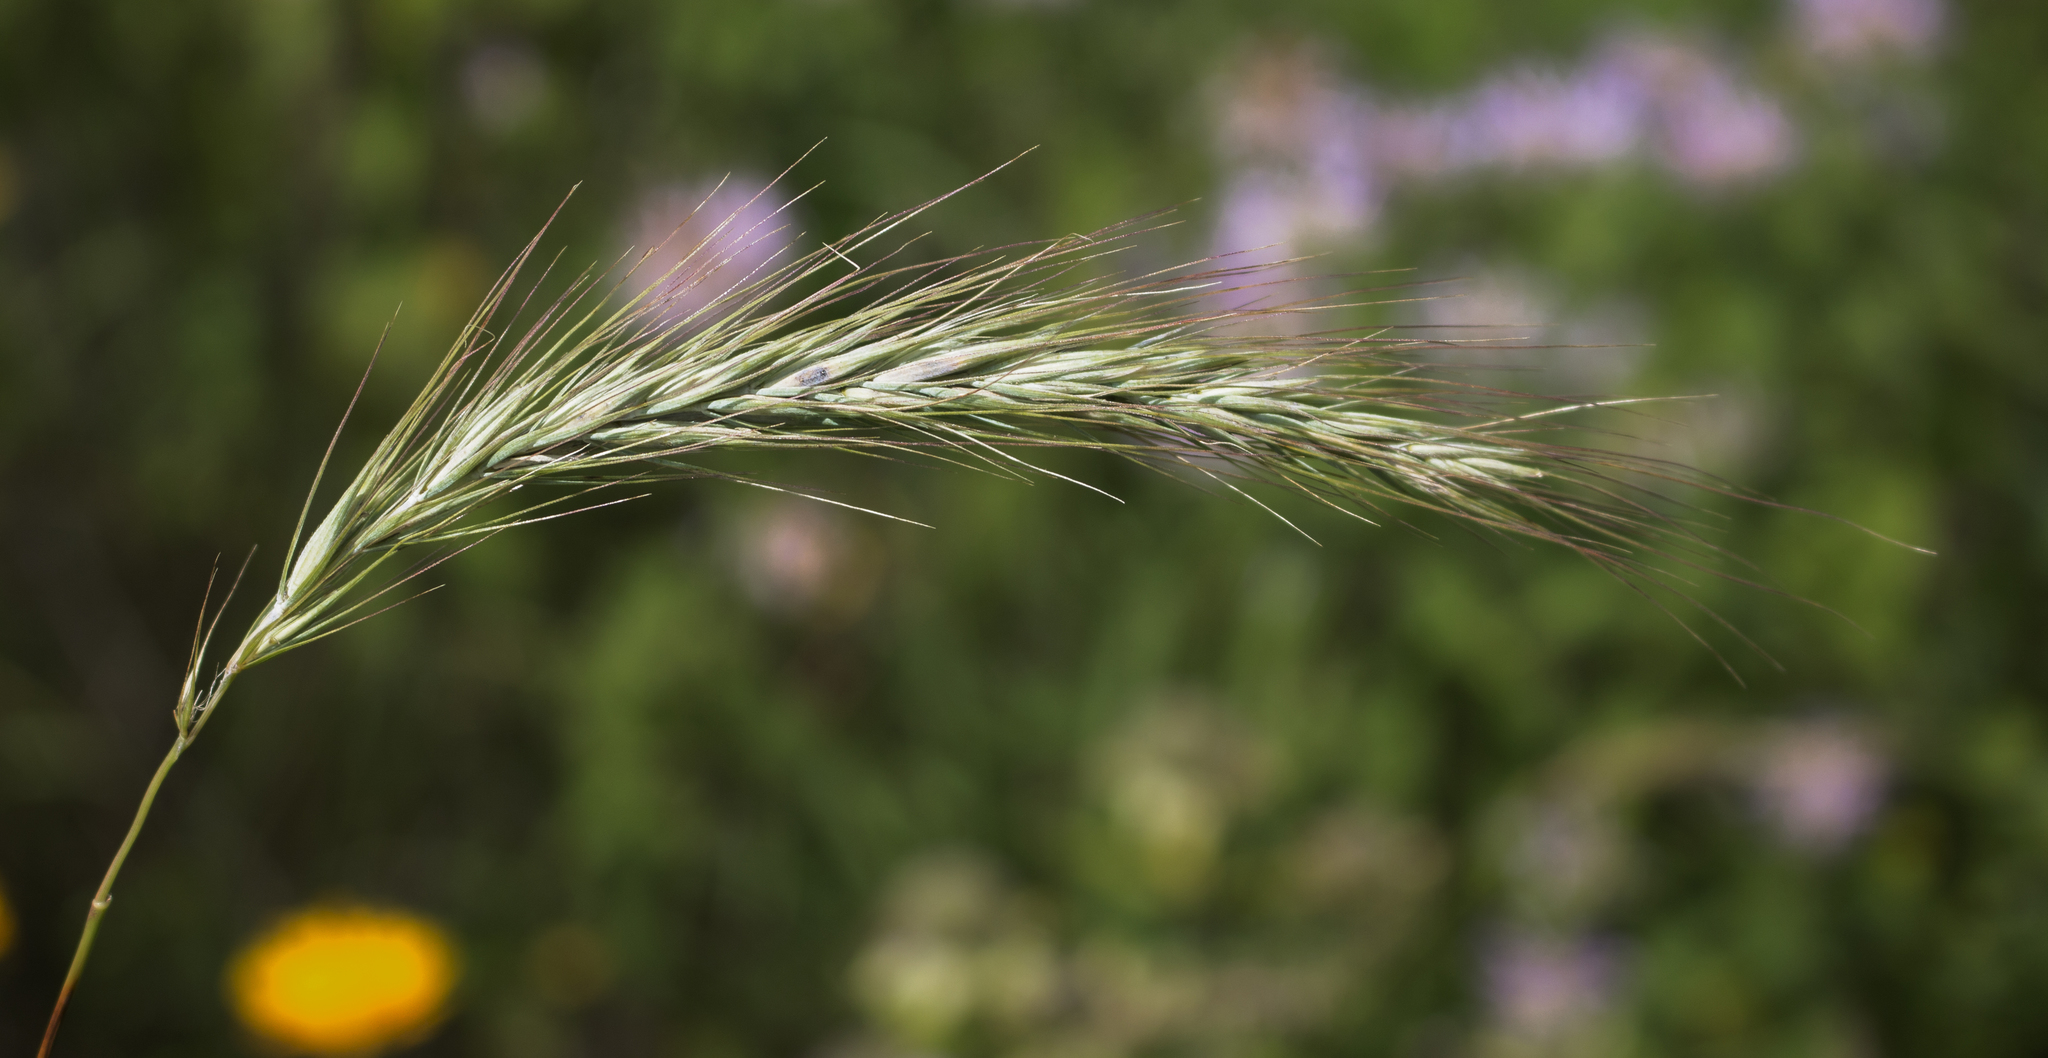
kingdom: Plantae
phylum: Tracheophyta
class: Liliopsida
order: Poales
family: Poaceae
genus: Elymus
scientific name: Elymus canadensis
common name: Canada wild rye
